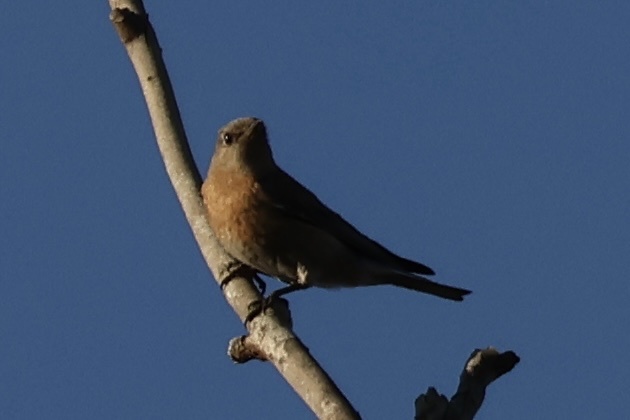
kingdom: Animalia
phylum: Chordata
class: Aves
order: Passeriformes
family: Turdidae
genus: Sialia
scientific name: Sialia mexicana
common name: Western bluebird
